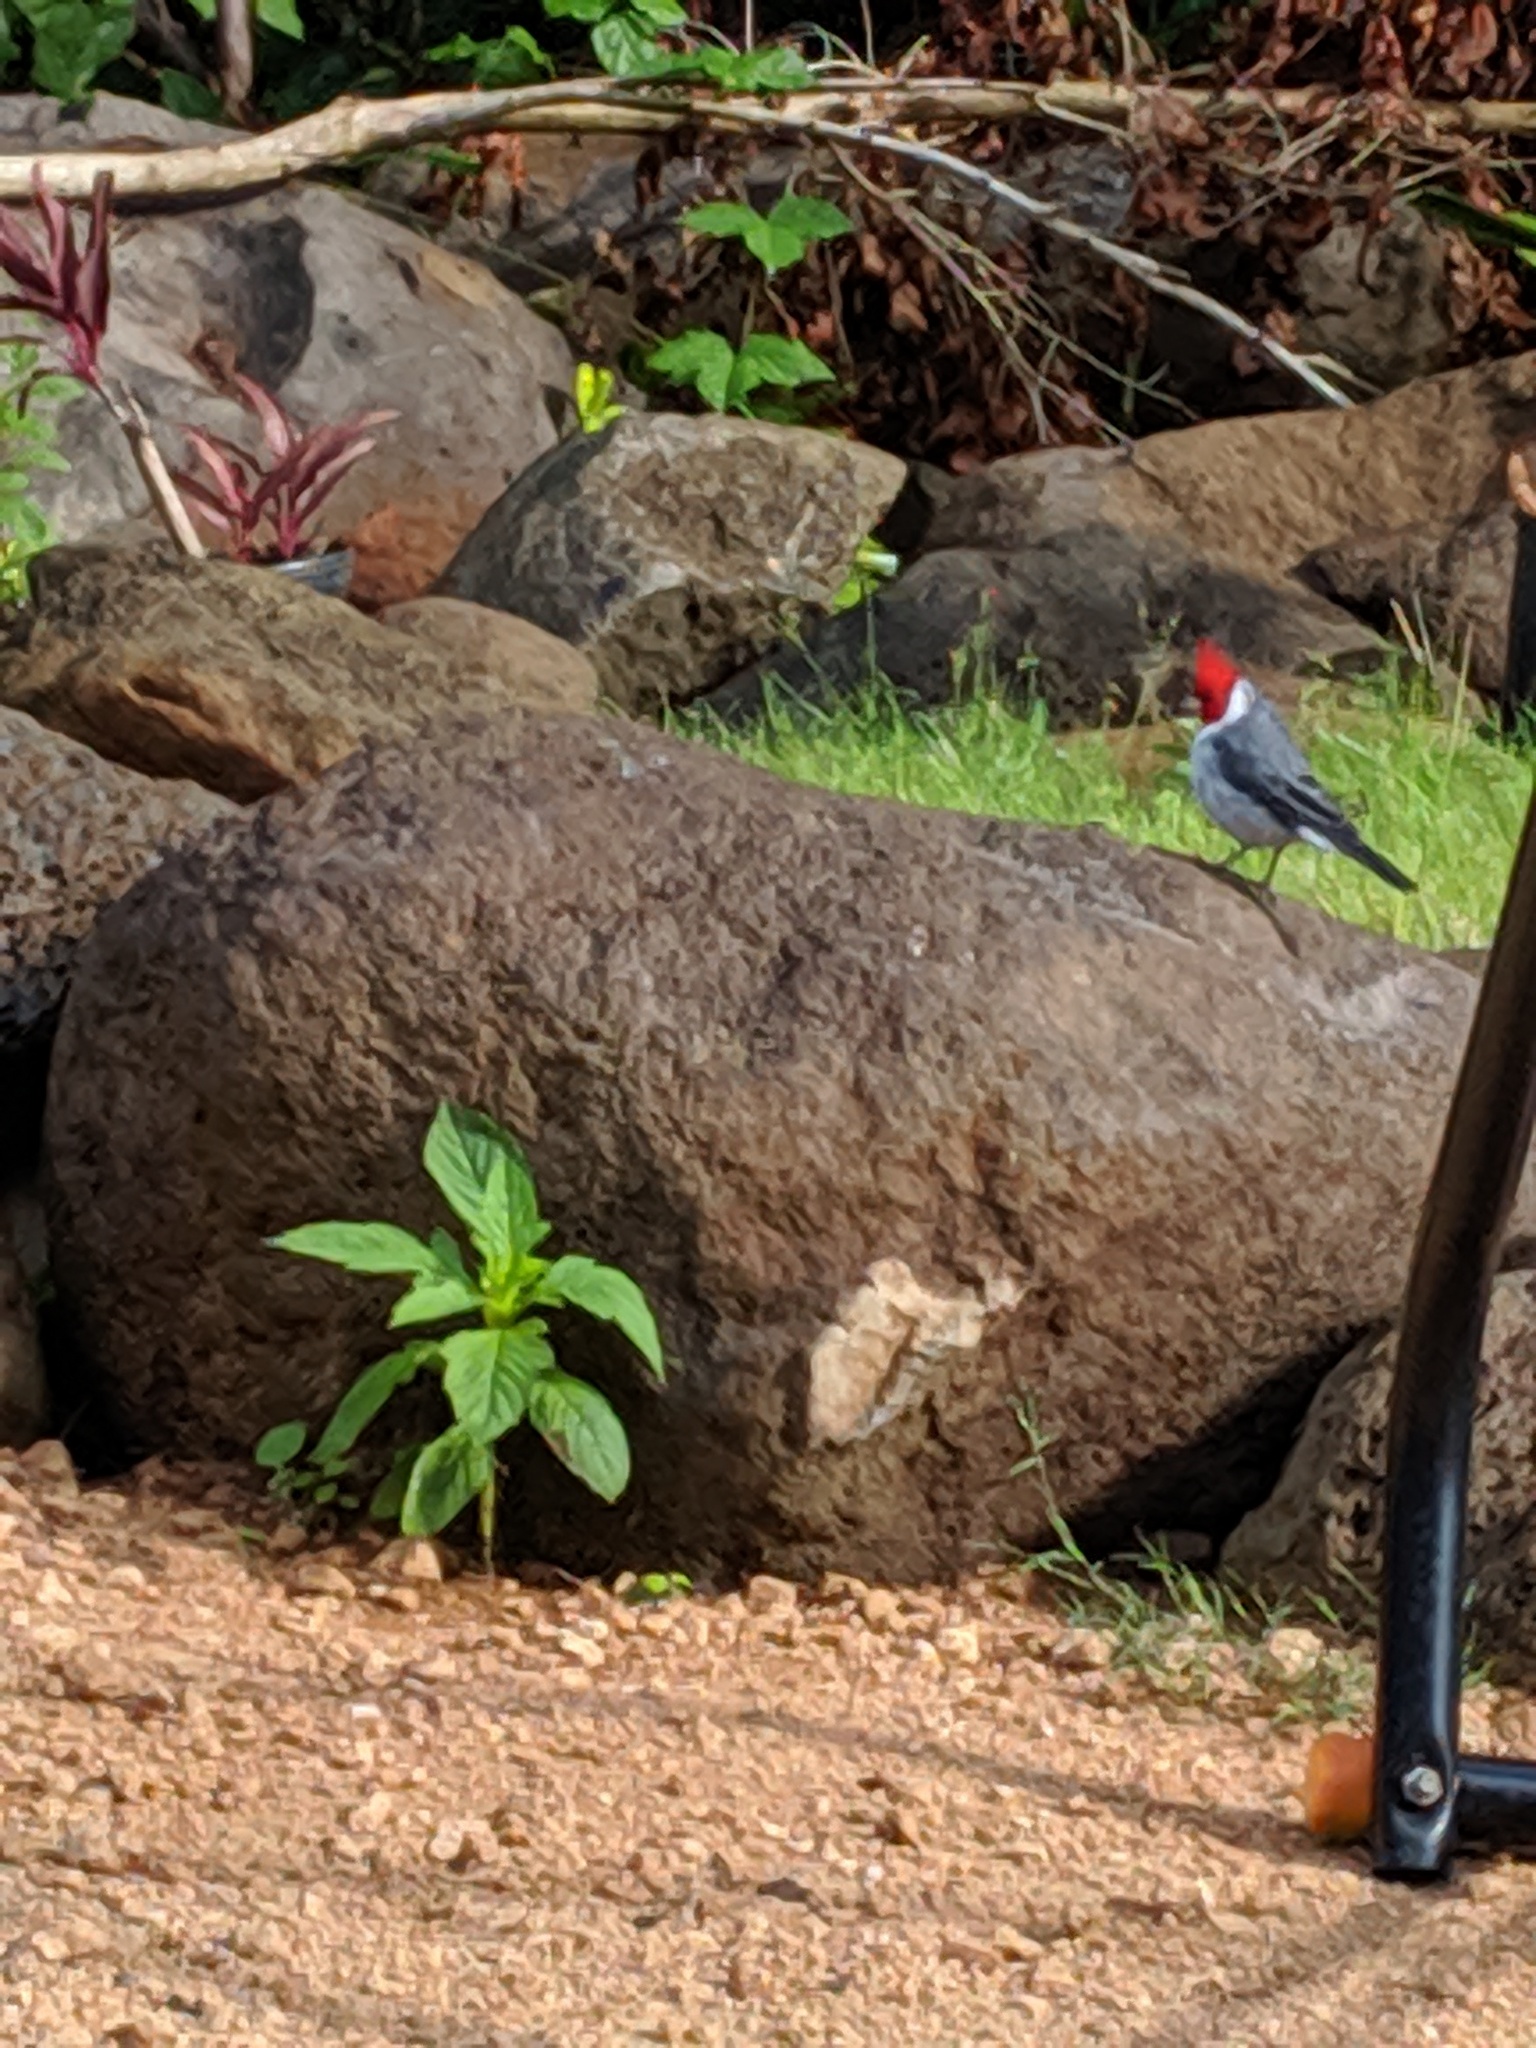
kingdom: Animalia
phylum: Chordata
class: Aves
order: Passeriformes
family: Thraupidae
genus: Paroaria
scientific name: Paroaria coronata
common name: Red-crested cardinal
